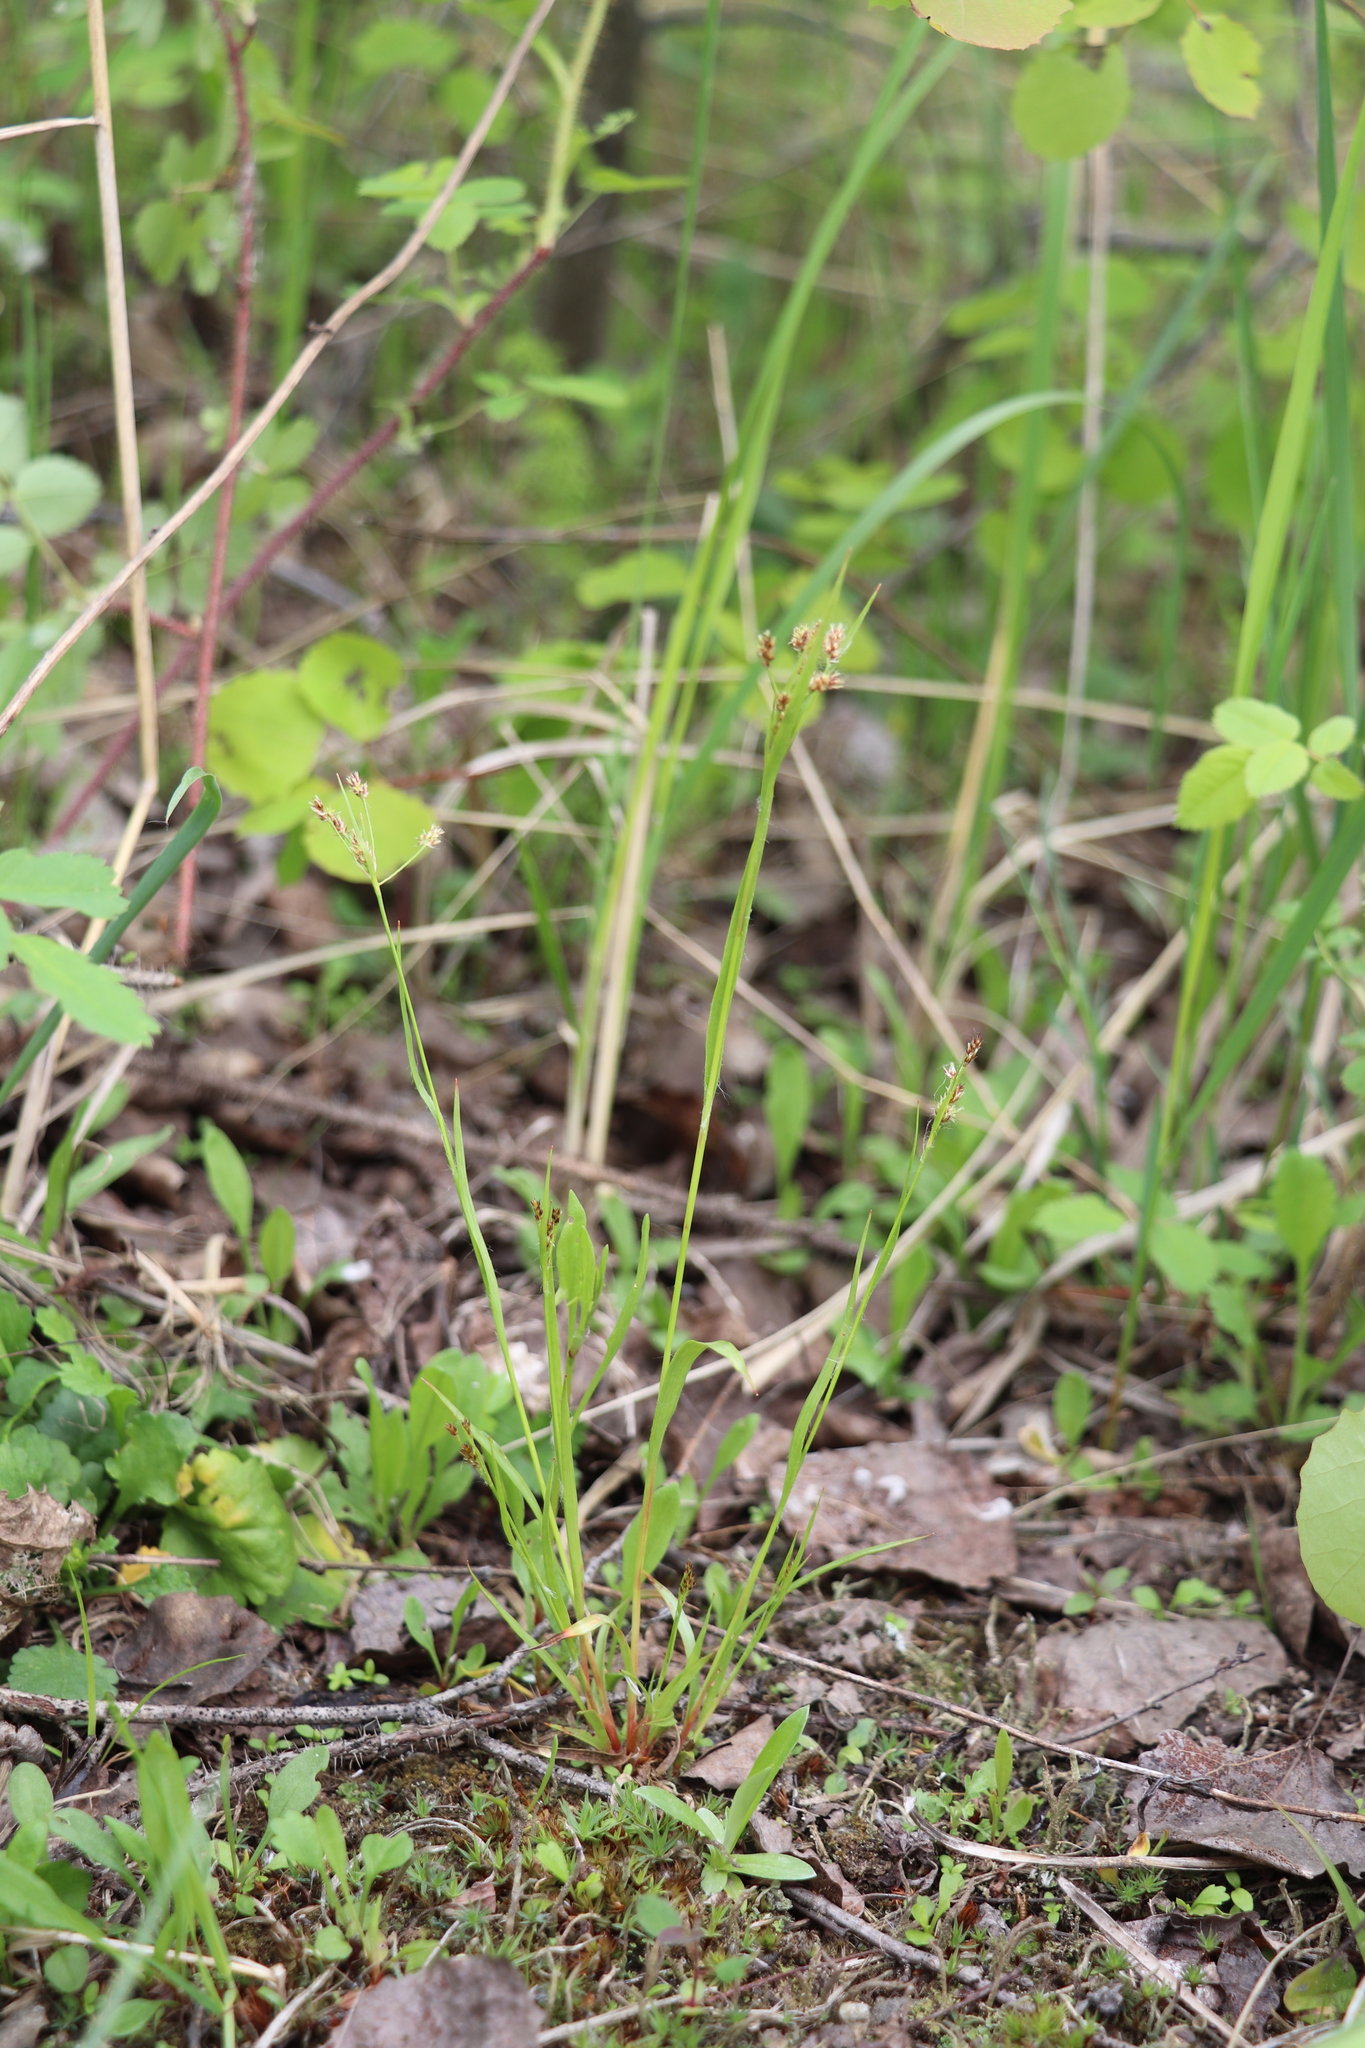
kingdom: Plantae
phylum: Tracheophyta
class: Liliopsida
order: Poales
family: Juncaceae
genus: Luzula
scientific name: Luzula pallescens
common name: Fen wood-rush
